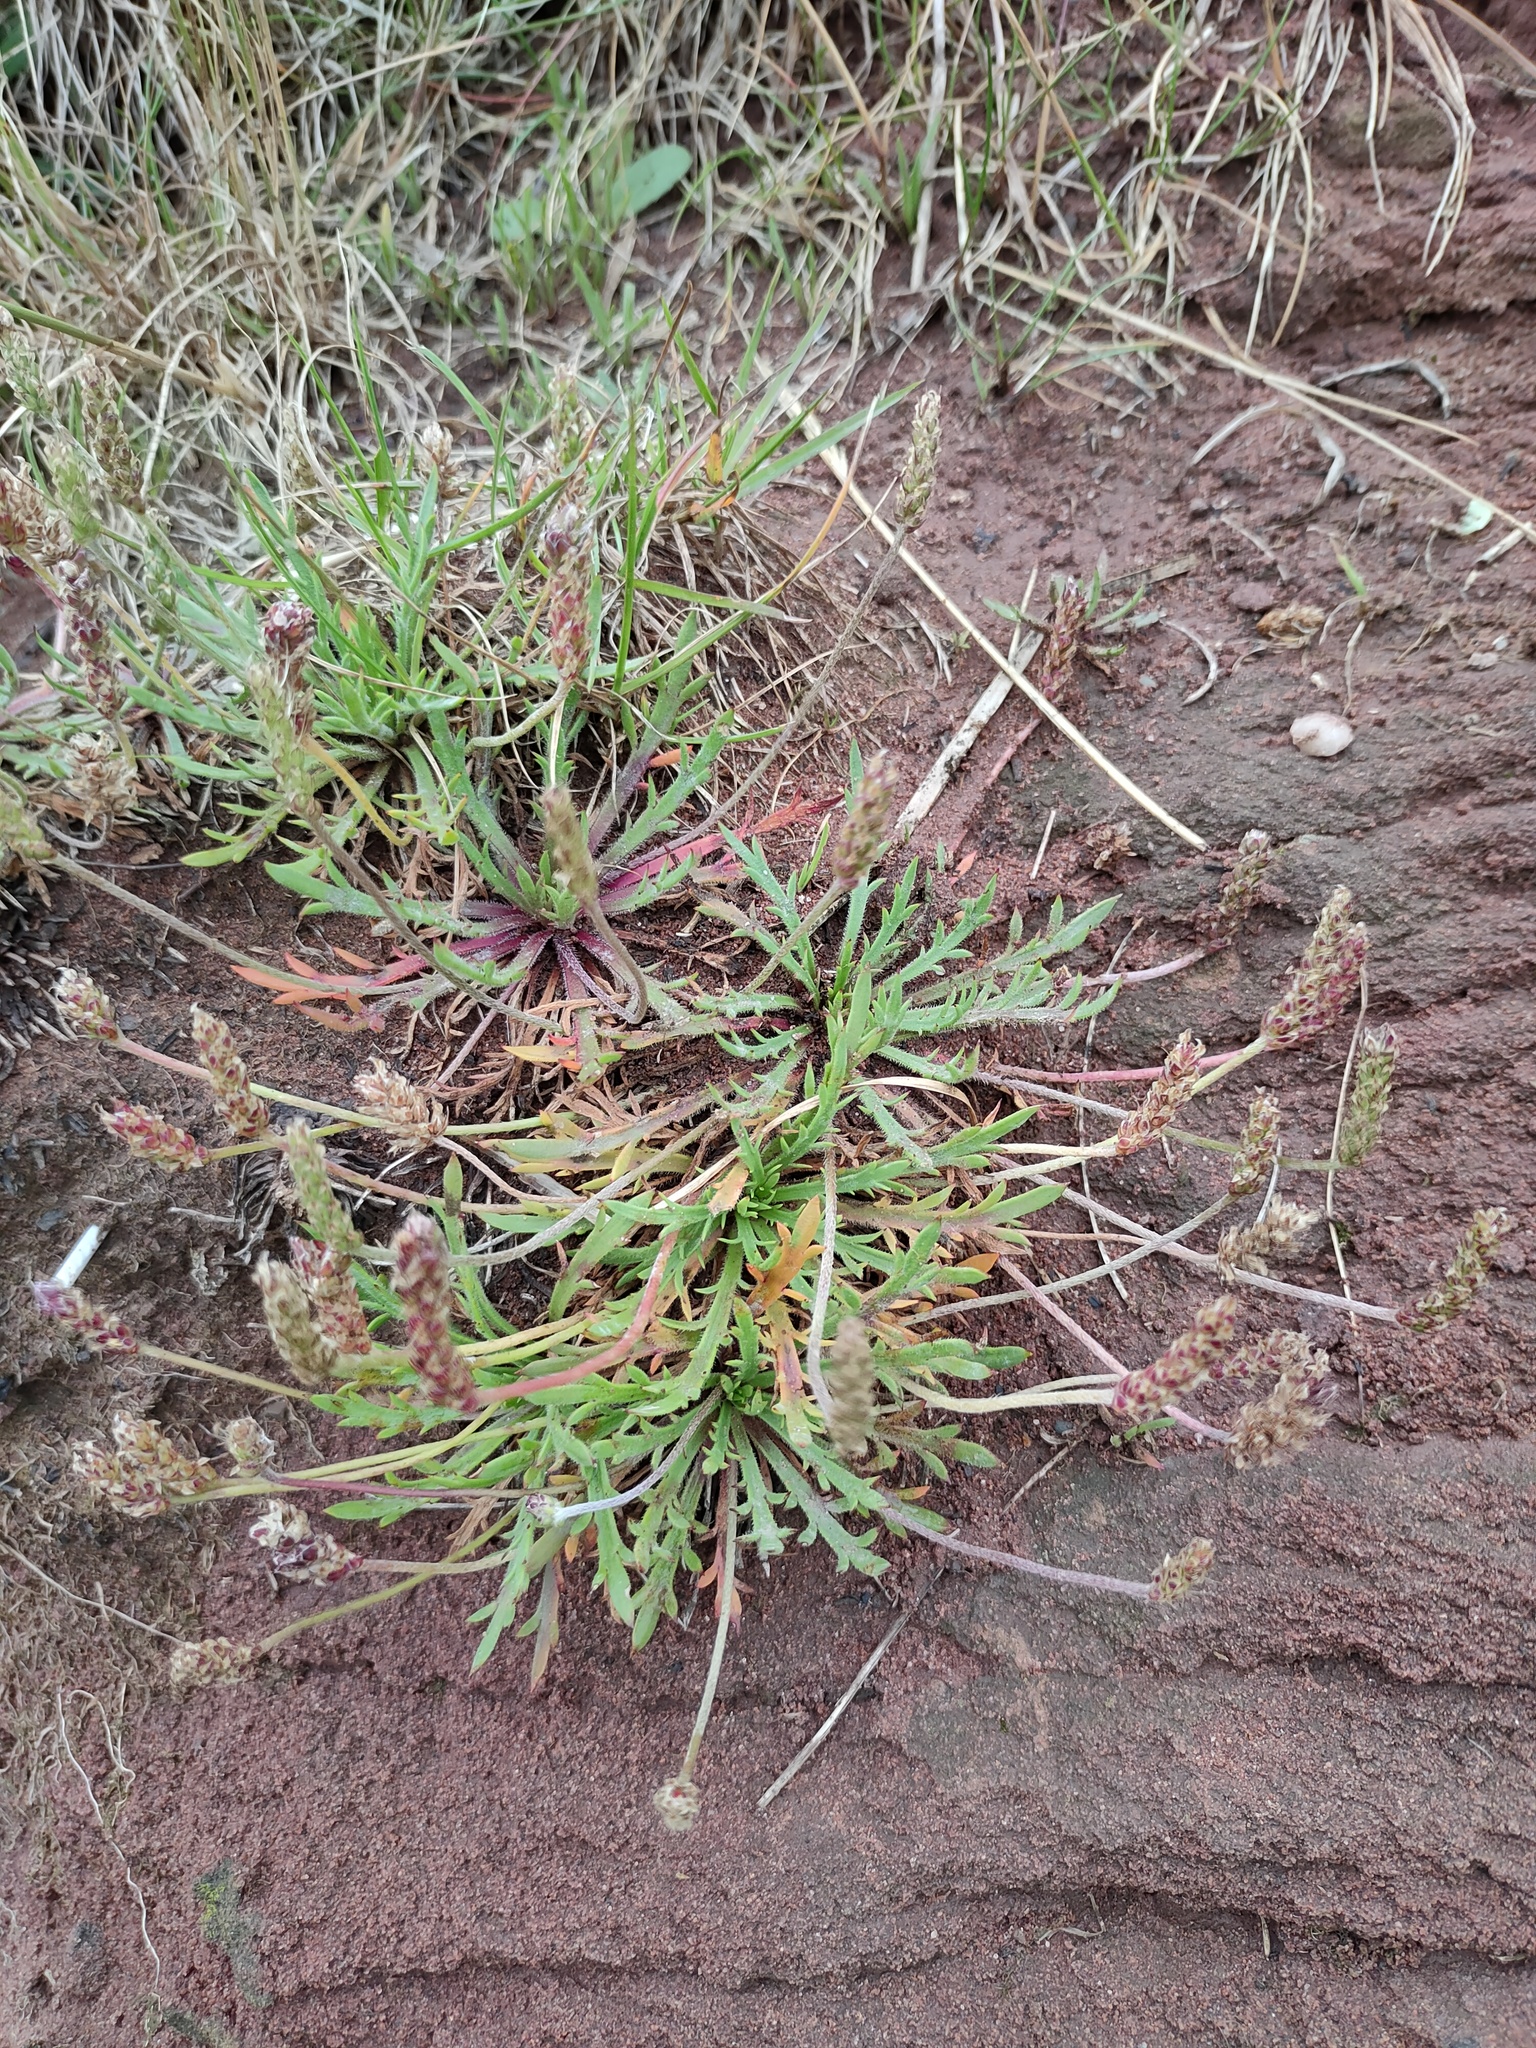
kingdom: Plantae
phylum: Tracheophyta
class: Magnoliopsida
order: Lamiales
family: Plantaginaceae
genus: Plantago
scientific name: Plantago coronopus
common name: Buck's-horn plantain
